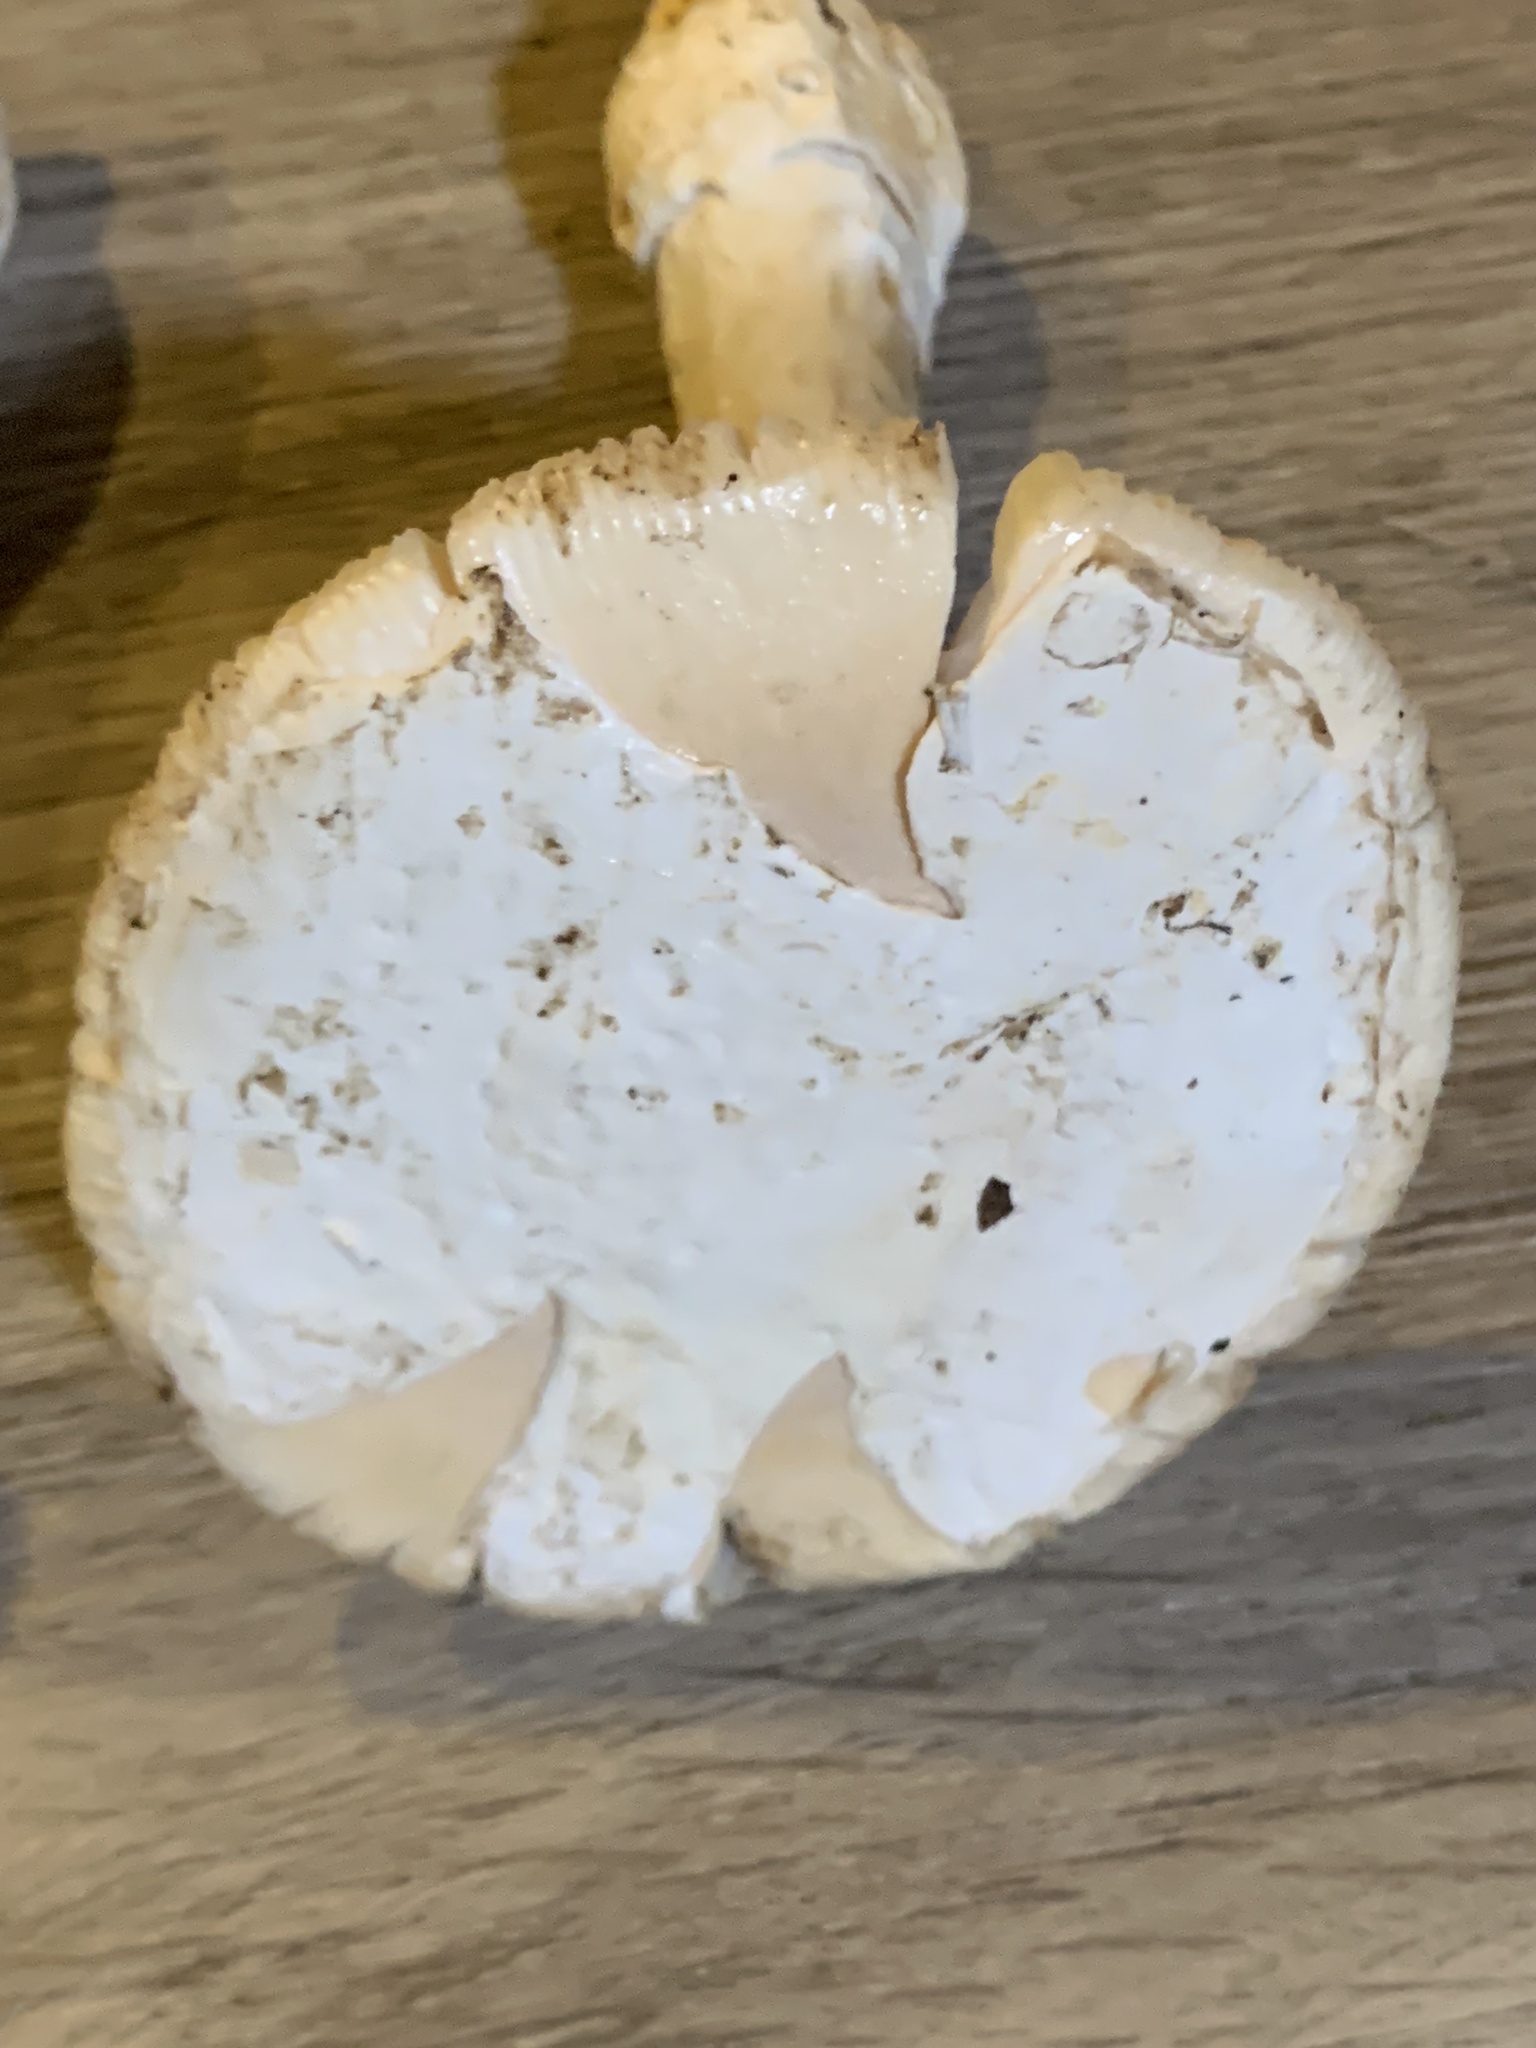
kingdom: Fungi
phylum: Basidiomycota
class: Agaricomycetes
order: Agaricales
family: Amanitaceae
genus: Amanita
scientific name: Amanita velosa
